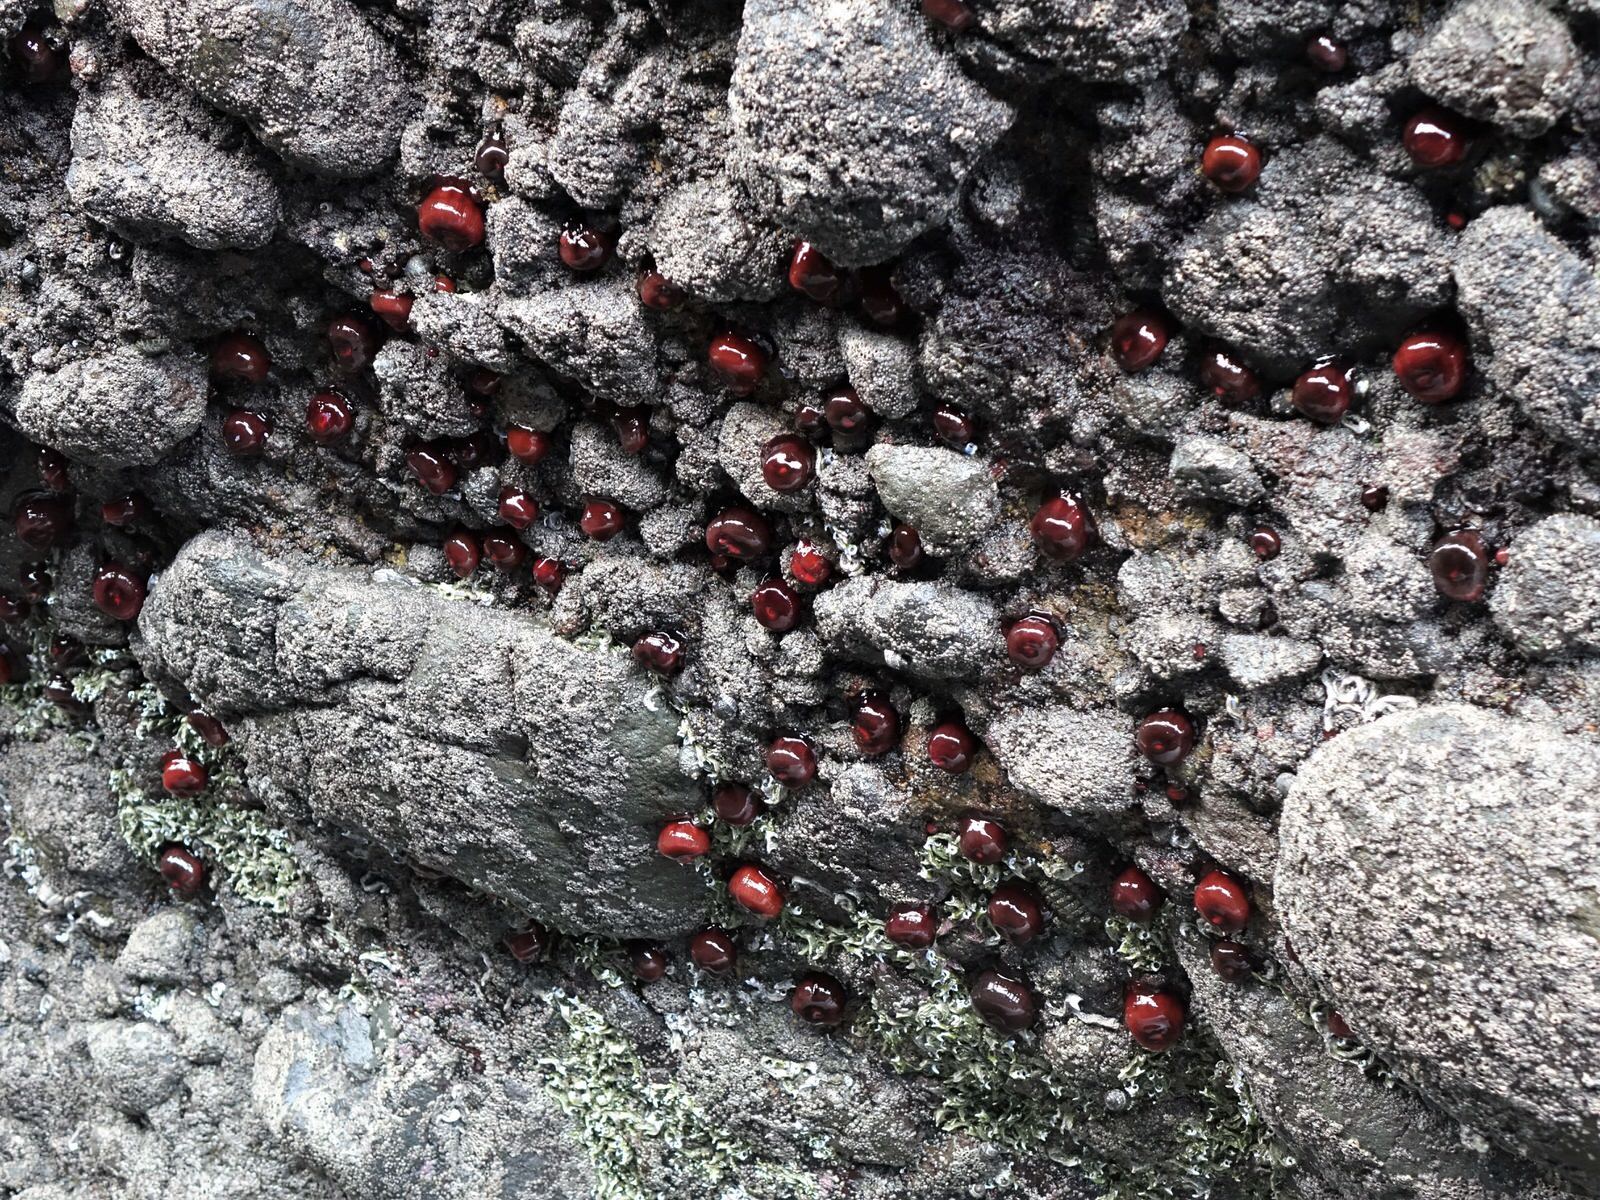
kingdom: Animalia
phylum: Cnidaria
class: Anthozoa
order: Actiniaria
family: Actiniidae
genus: Actinia
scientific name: Actinia tenebrosa
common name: Waratah anemone
